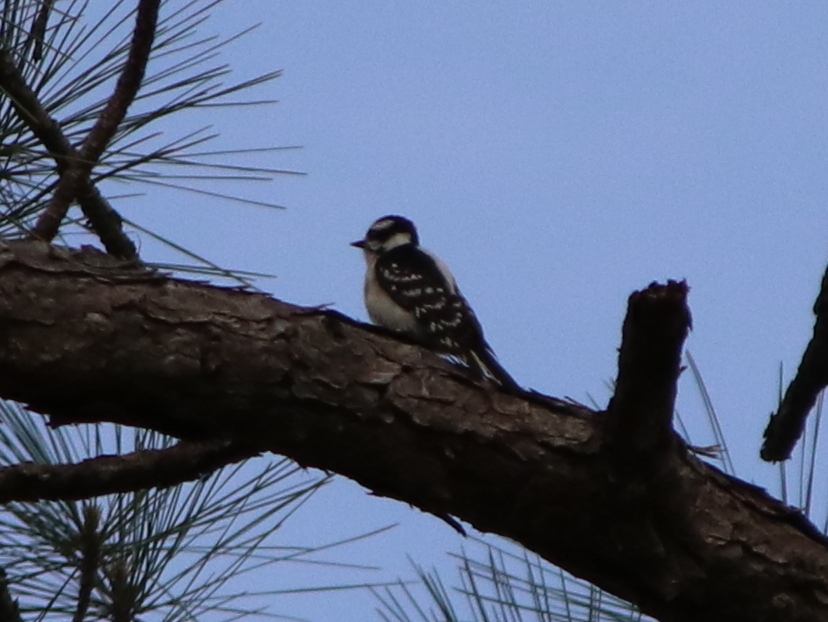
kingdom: Animalia
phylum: Chordata
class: Aves
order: Piciformes
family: Picidae
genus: Dryobates
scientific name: Dryobates pubescens
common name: Downy woodpecker
